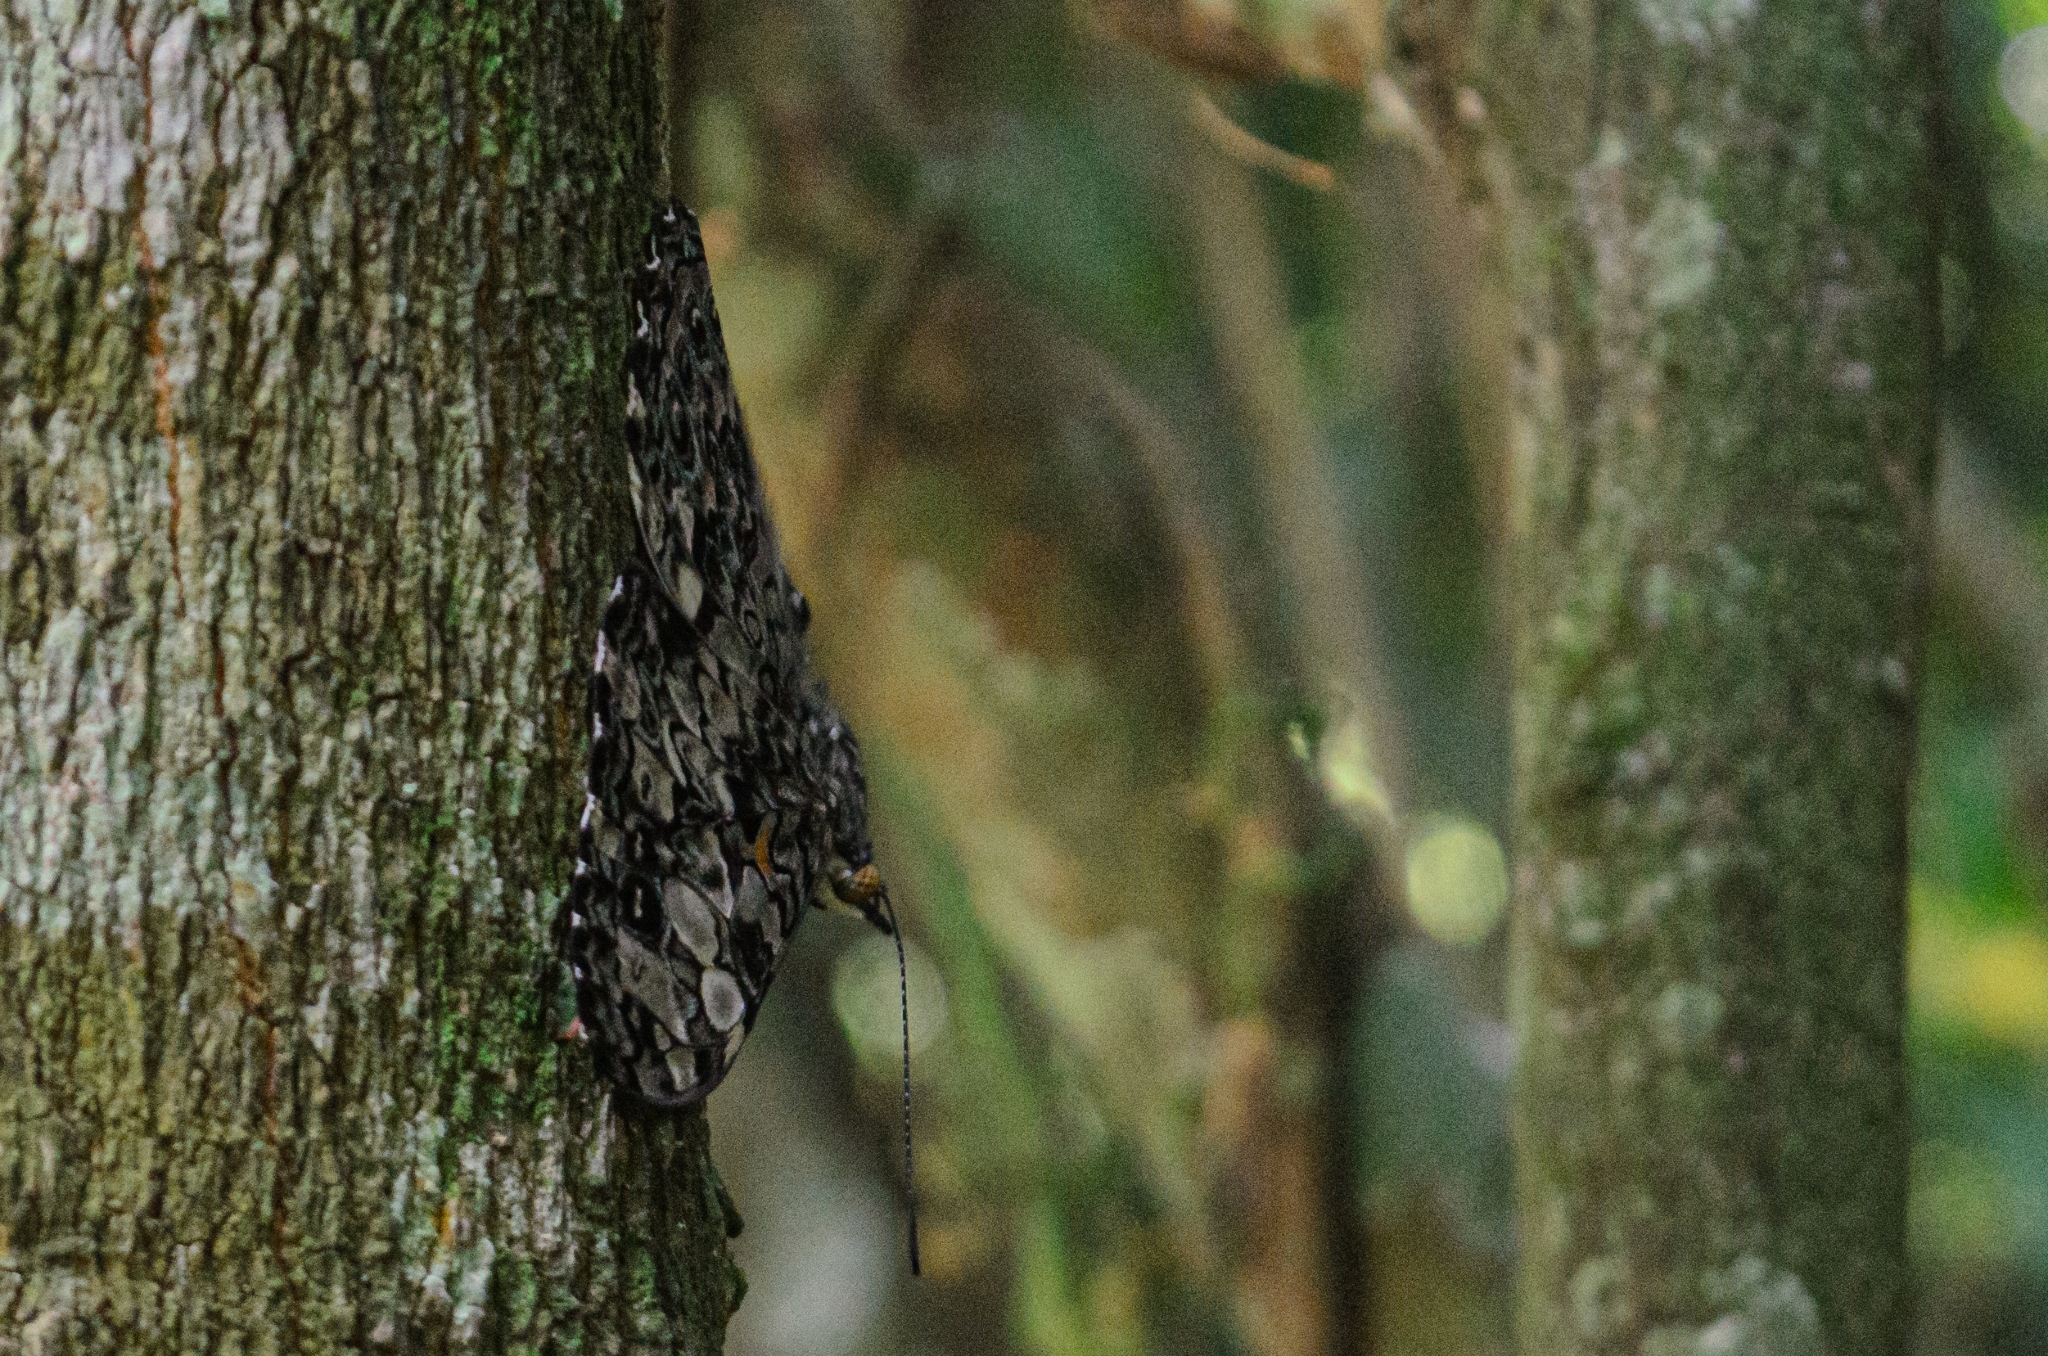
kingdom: Animalia
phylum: Arthropoda
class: Insecta
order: Lepidoptera
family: Nymphalidae
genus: Hamadryas
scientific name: Hamadryas epinome
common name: Epinome cracker
